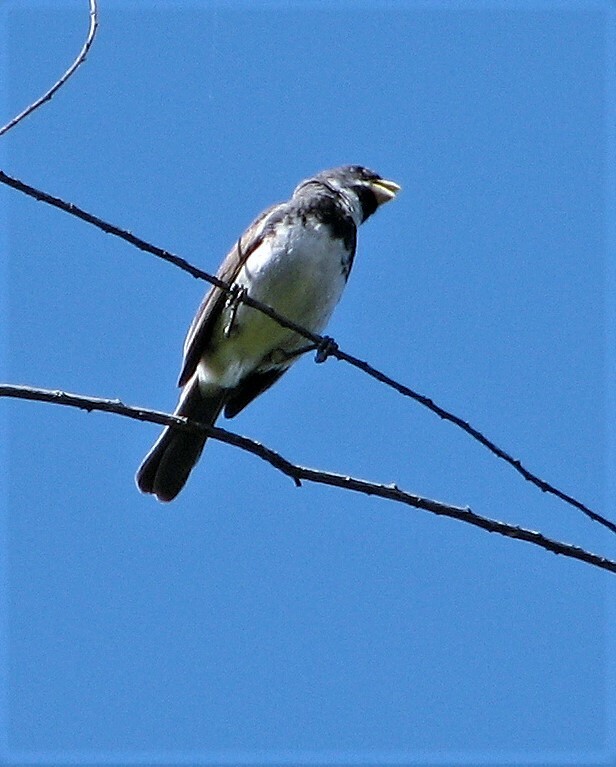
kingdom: Animalia
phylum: Chordata
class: Aves
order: Passeriformes
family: Thraupidae
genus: Sporophila
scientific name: Sporophila caerulescens
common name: Double-collared seedeater
